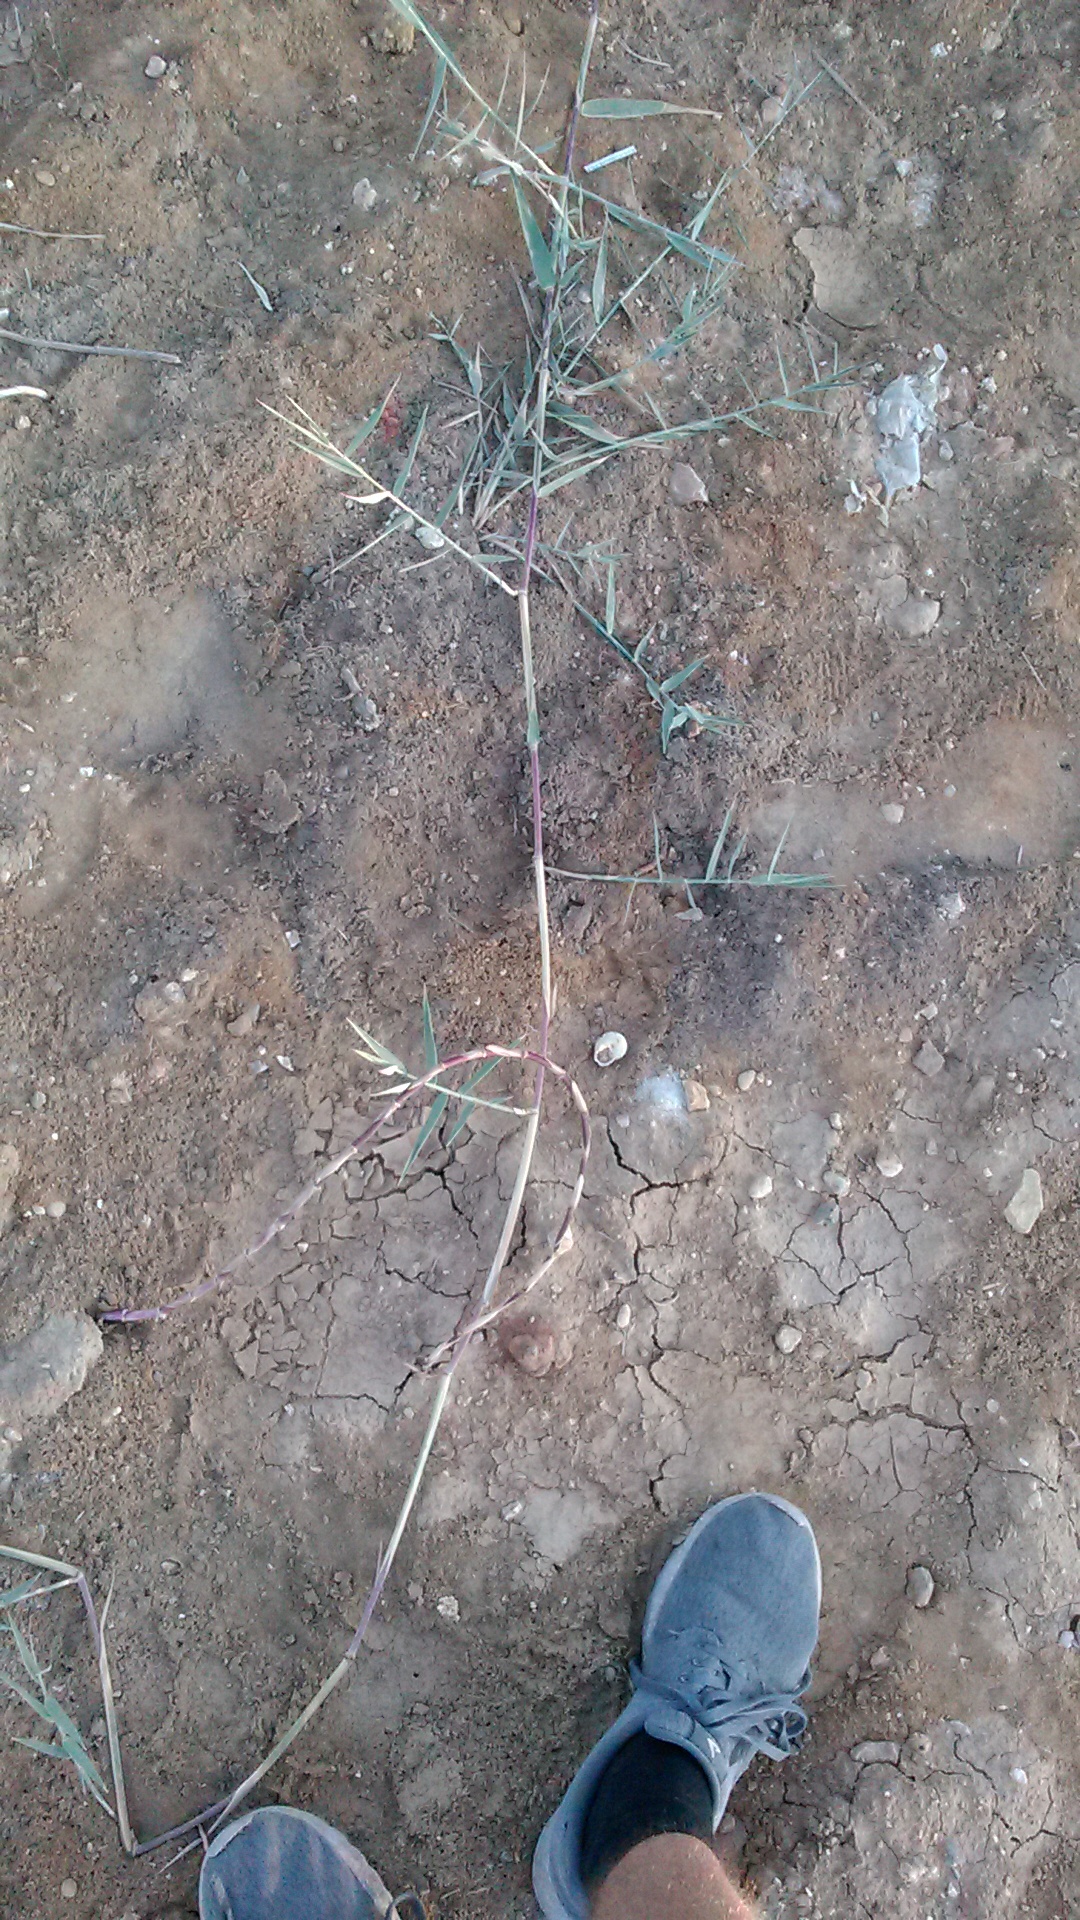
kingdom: Plantae
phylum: Tracheophyta
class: Liliopsida
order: Poales
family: Poaceae
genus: Cynodon
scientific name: Cynodon dactylon
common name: Bermuda grass
